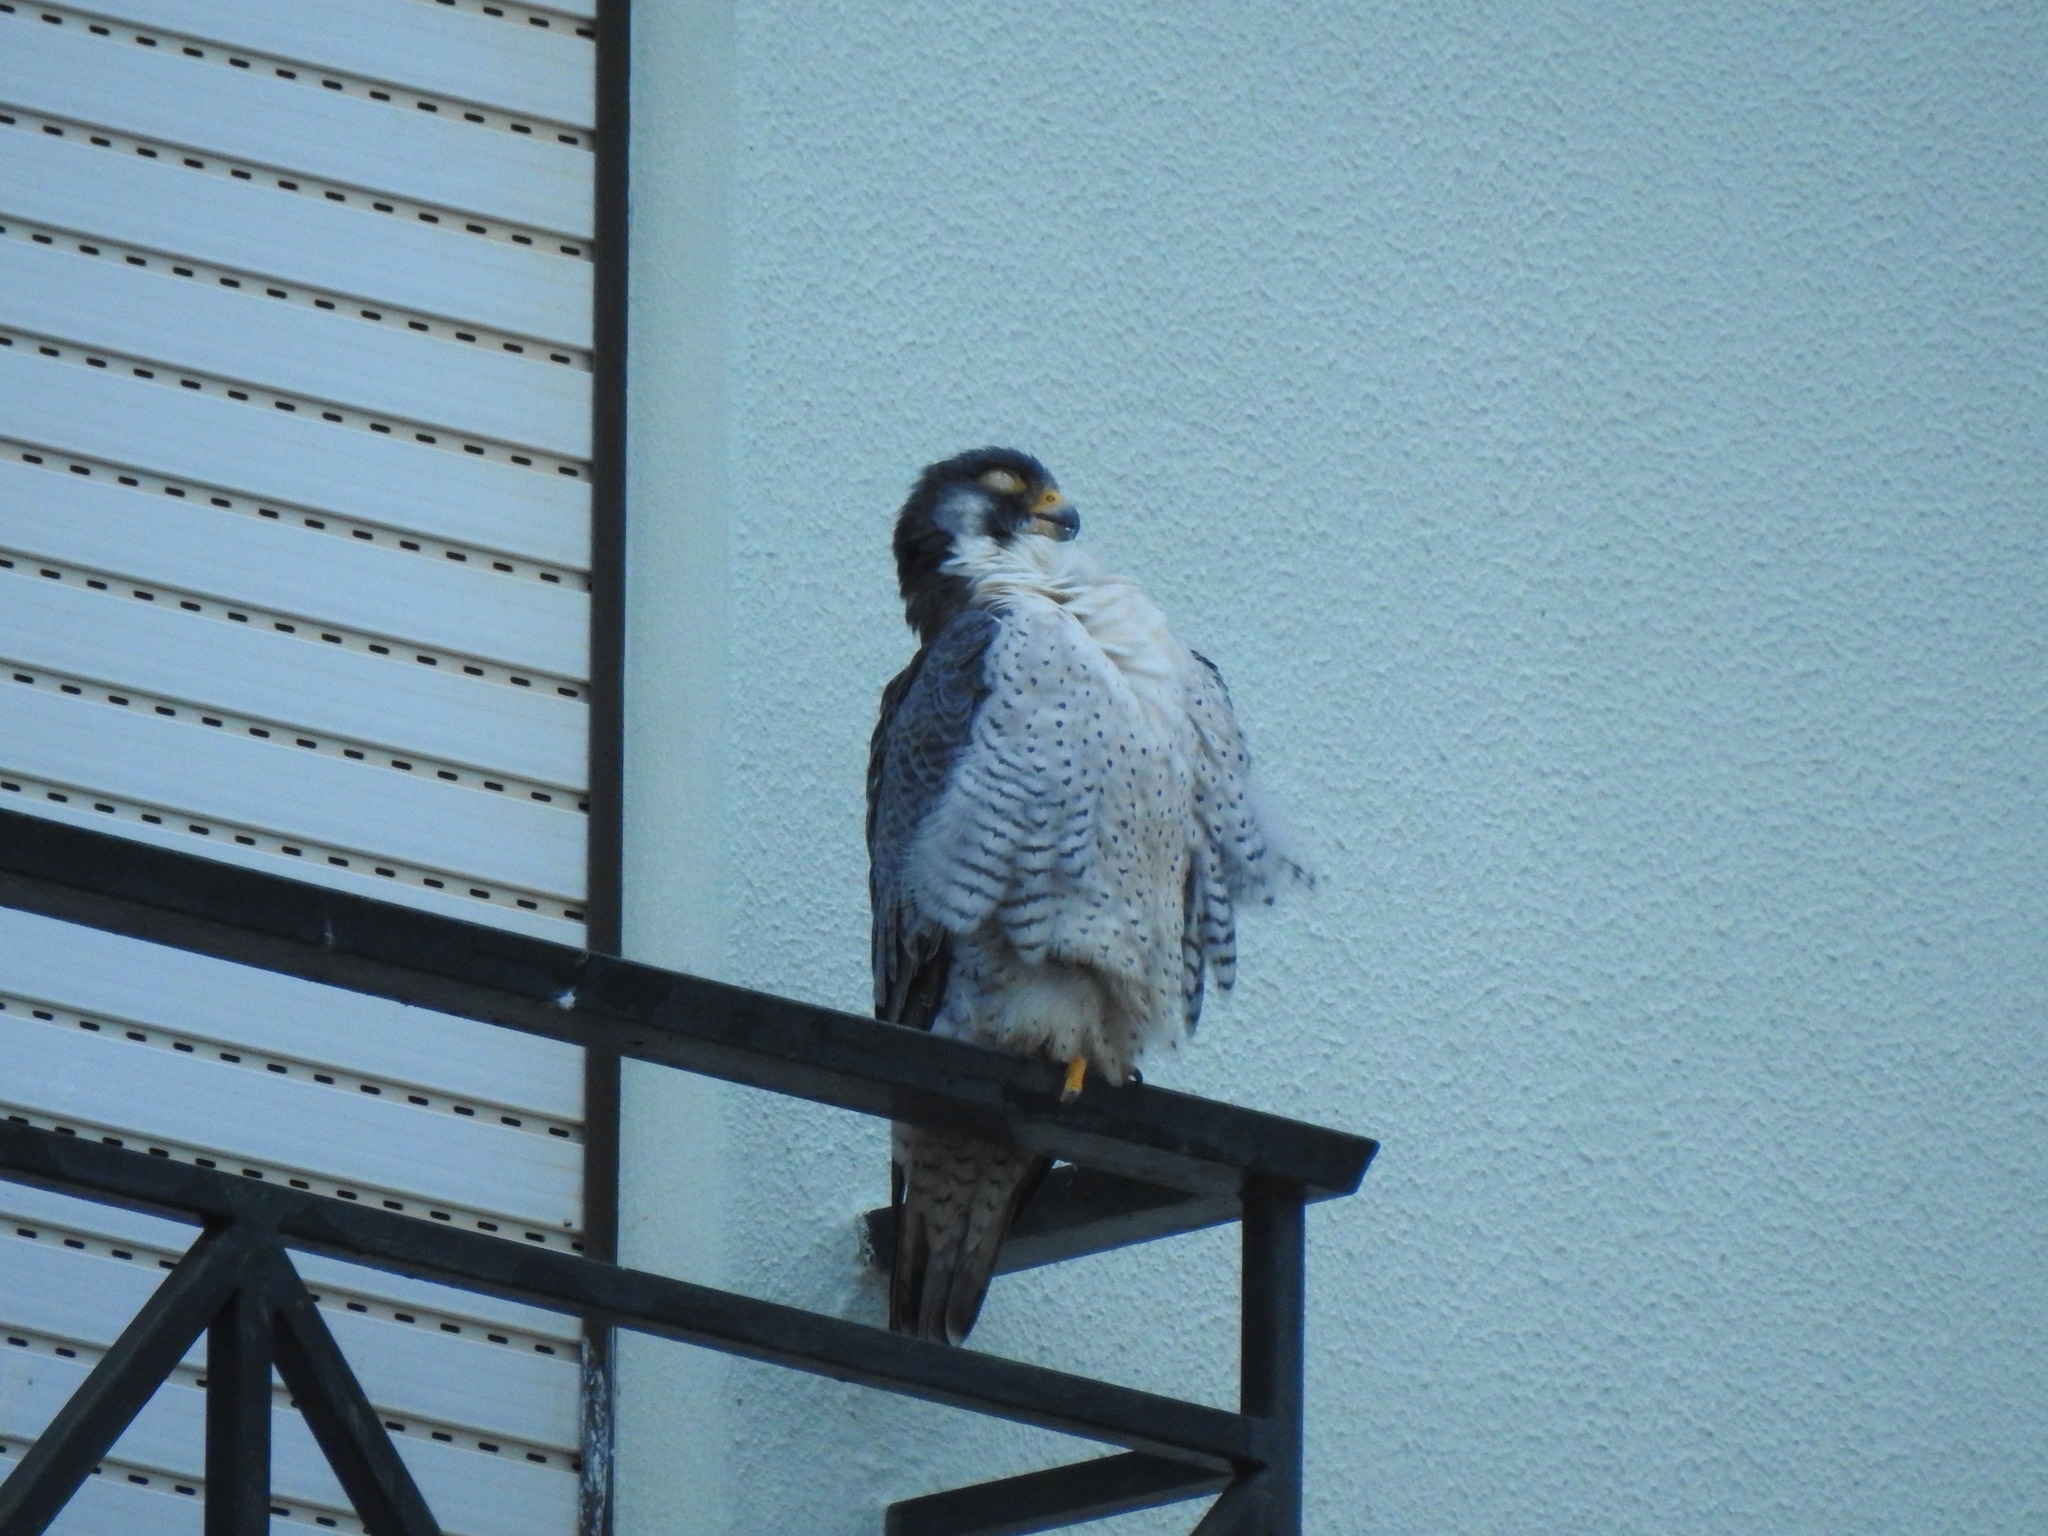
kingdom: Animalia
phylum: Chordata
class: Aves
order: Falconiformes
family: Falconidae
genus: Falco
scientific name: Falco peregrinus
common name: Peregrine falcon
